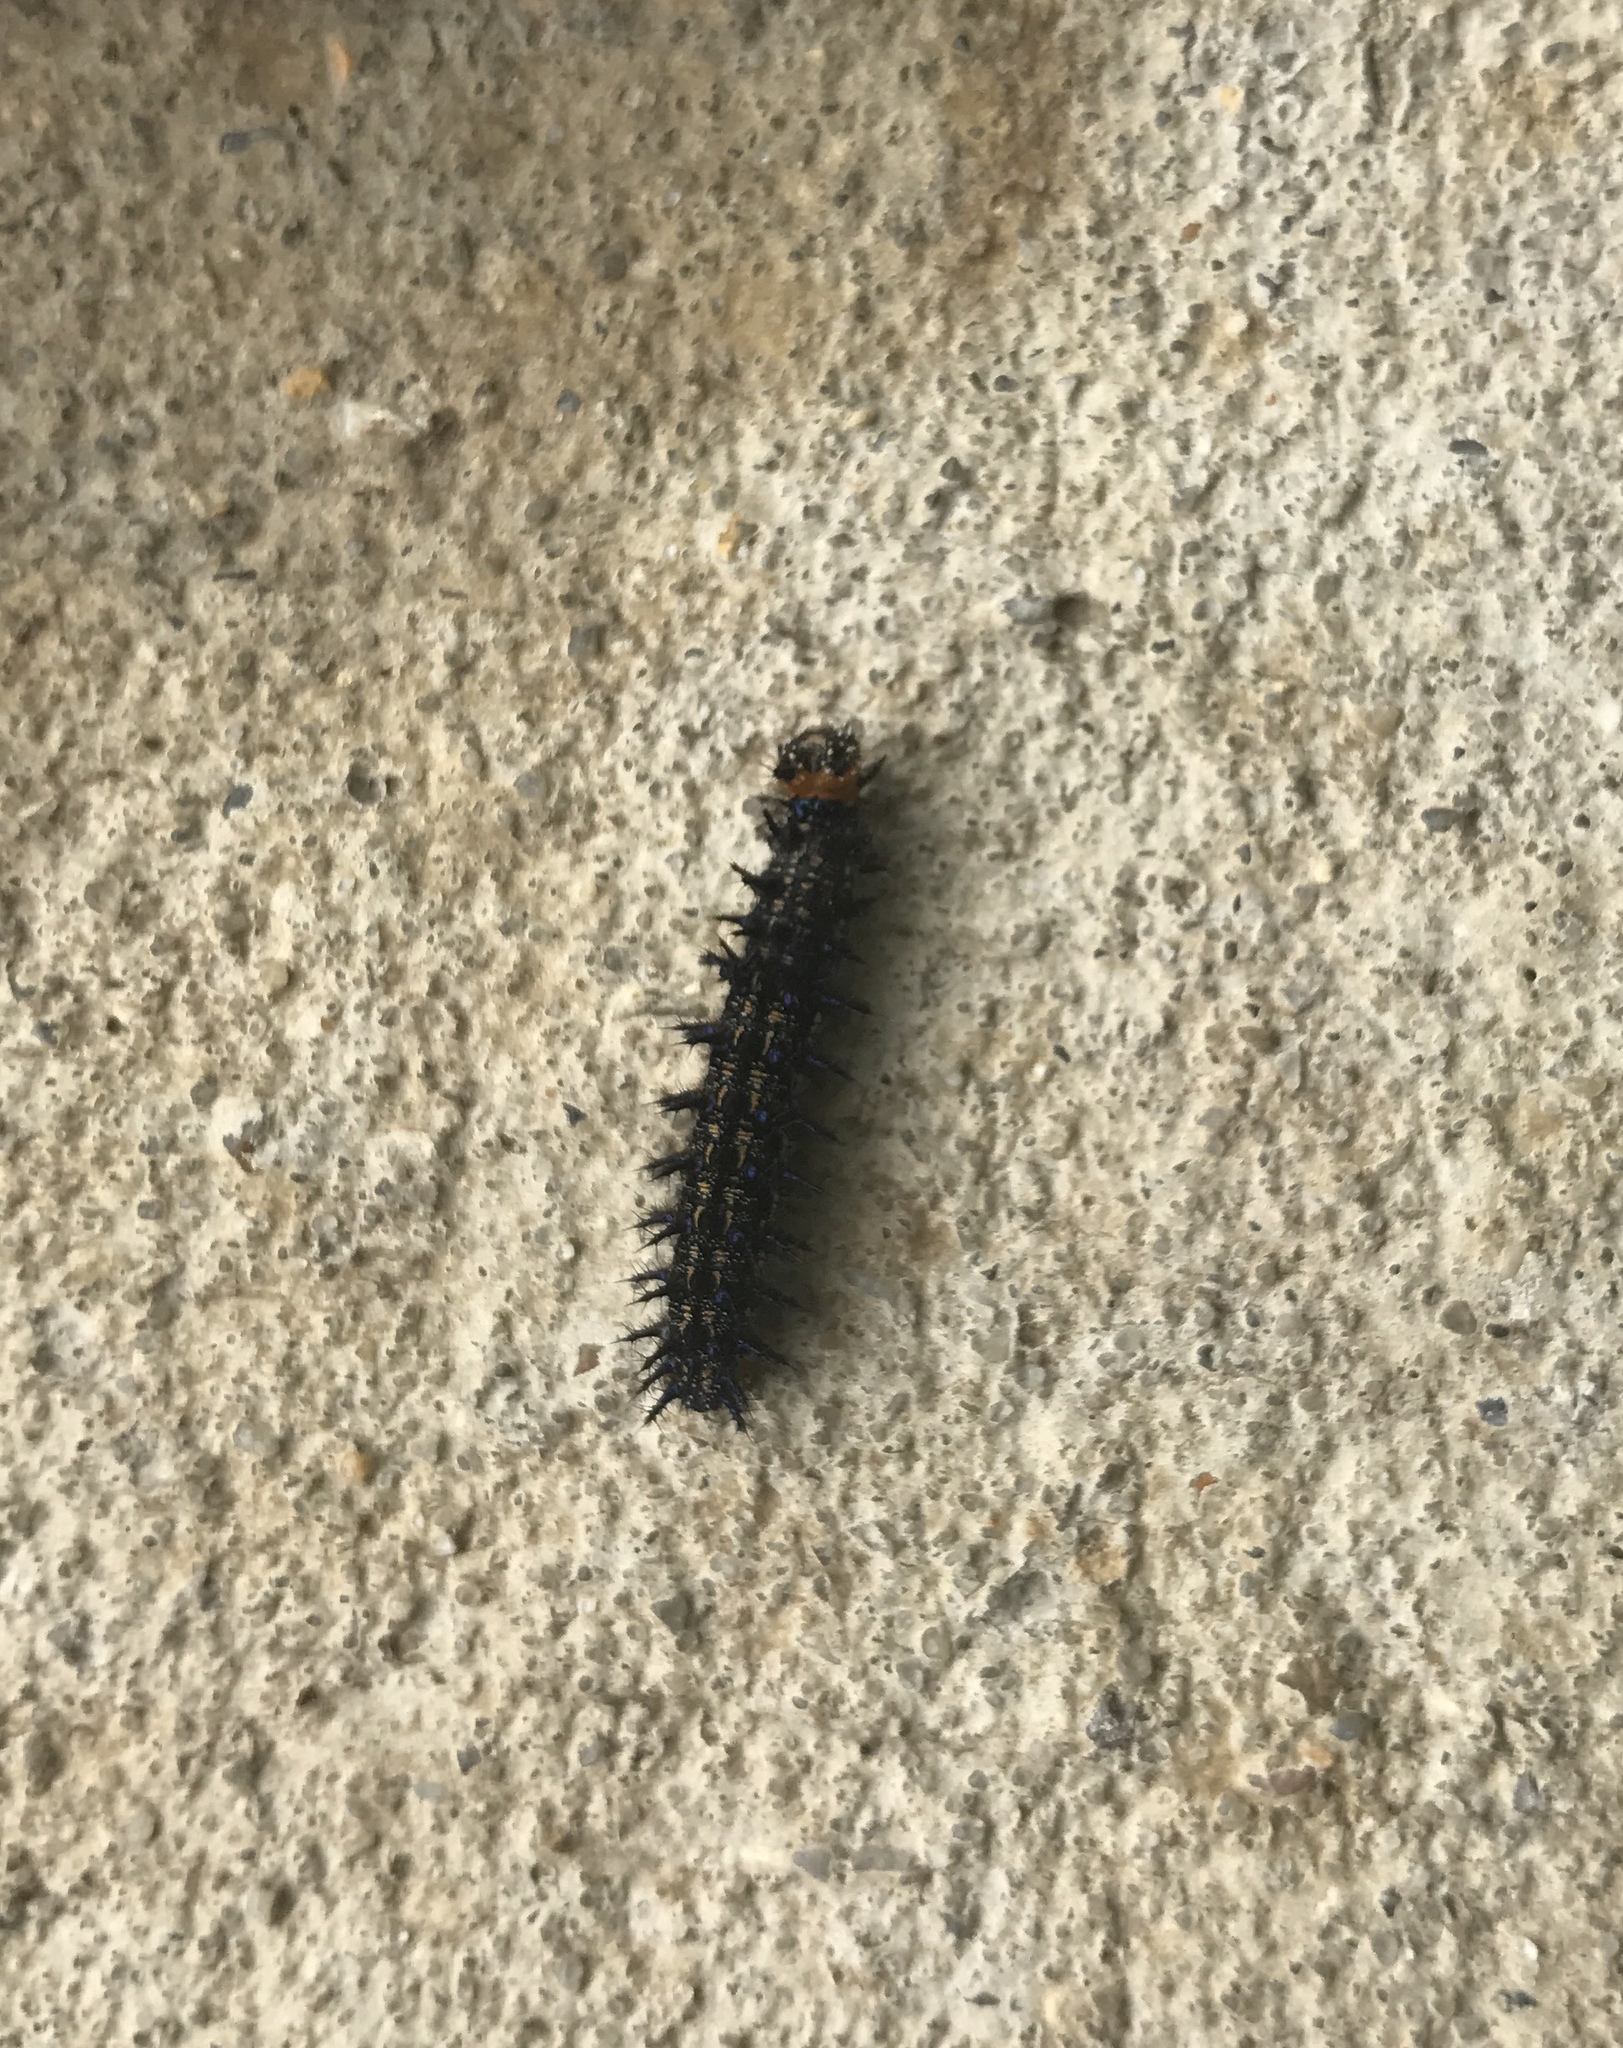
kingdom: Animalia
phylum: Arthropoda
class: Insecta
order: Lepidoptera
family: Nymphalidae
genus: Junonia
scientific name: Junonia coenia
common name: Common buckeye
